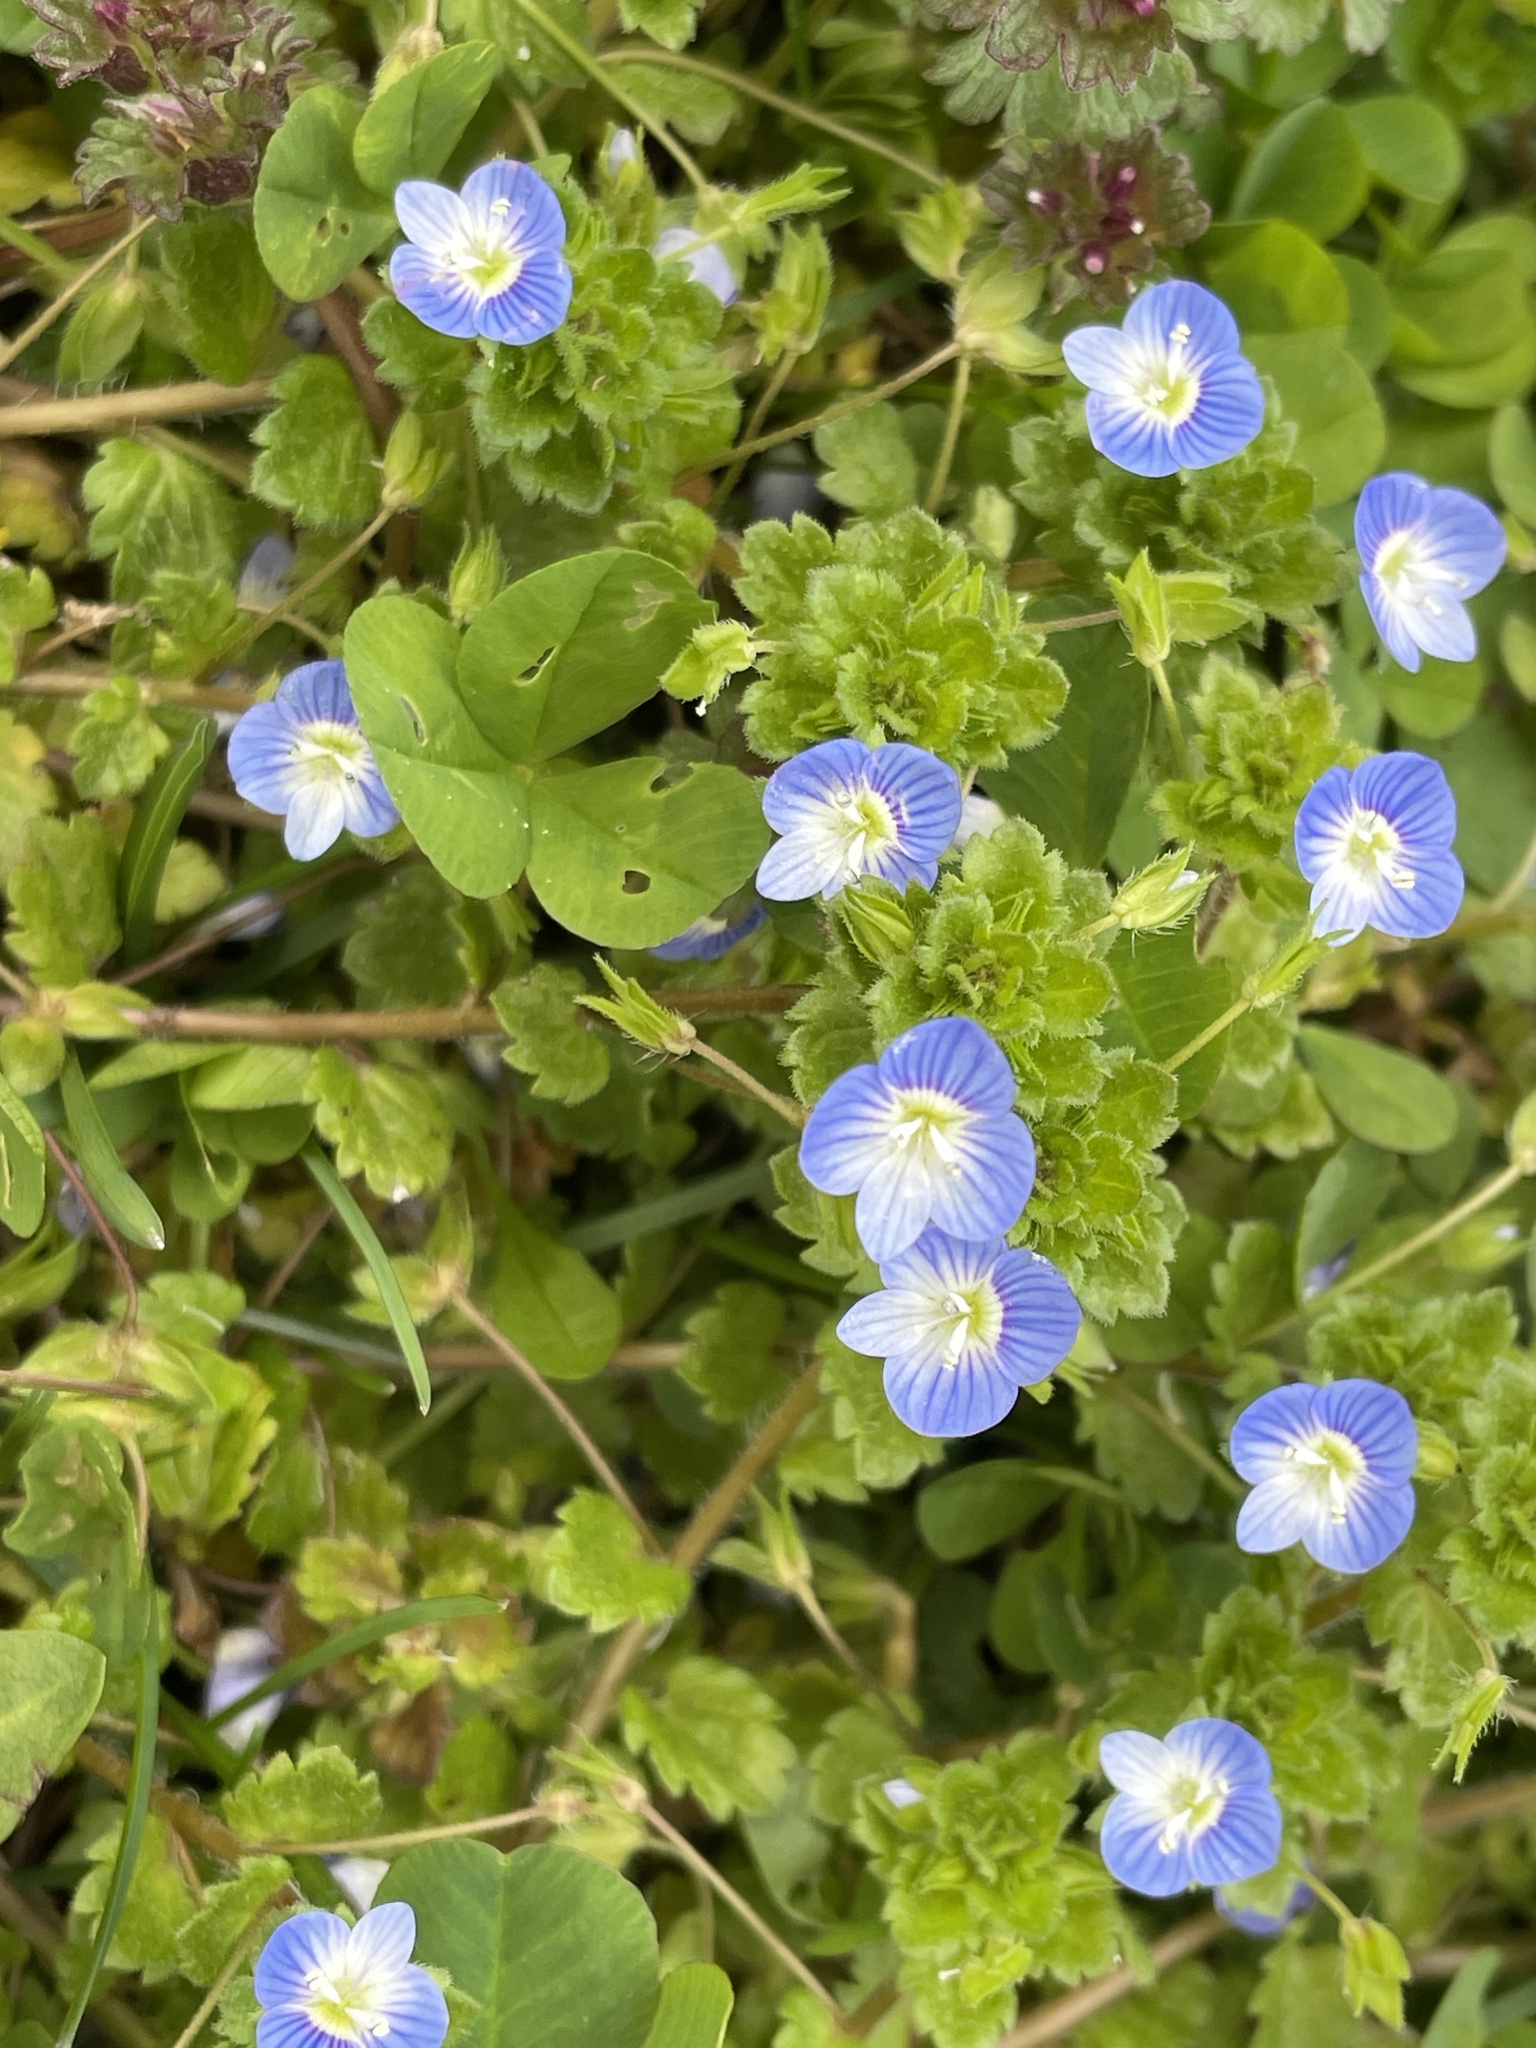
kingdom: Plantae
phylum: Tracheophyta
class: Magnoliopsida
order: Lamiales
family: Plantaginaceae
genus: Veronica
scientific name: Veronica persica
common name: Common field-speedwell
